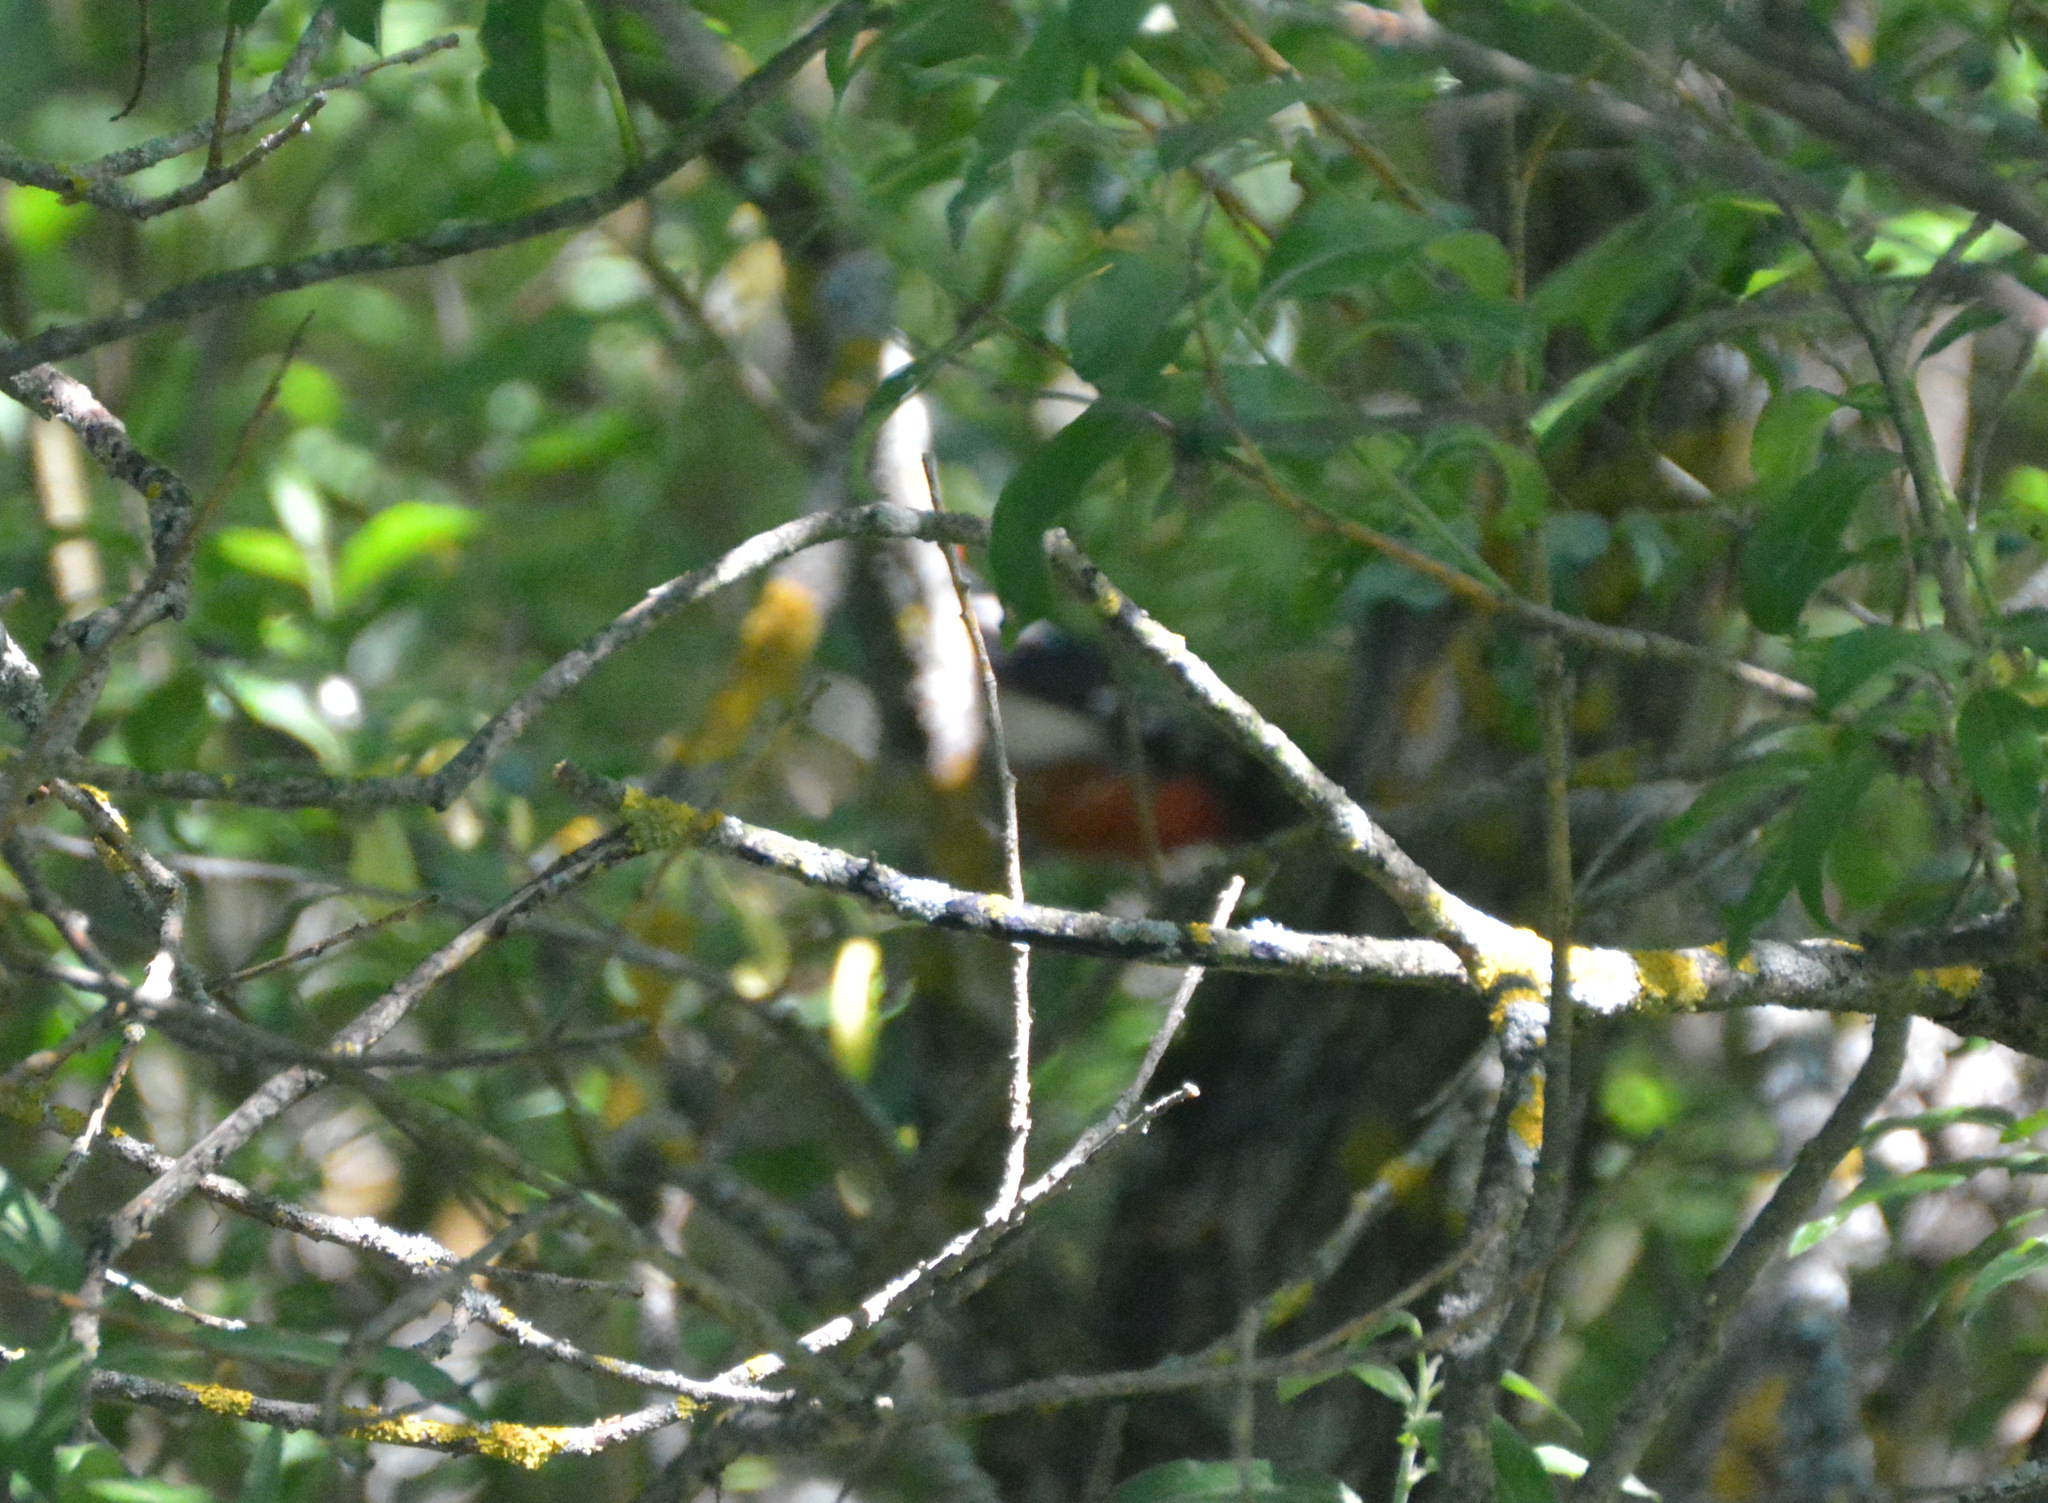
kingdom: Animalia
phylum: Chordata
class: Aves
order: Piciformes
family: Picidae
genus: Dendrocopos
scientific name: Dendrocopos major
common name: Great spotted woodpecker
